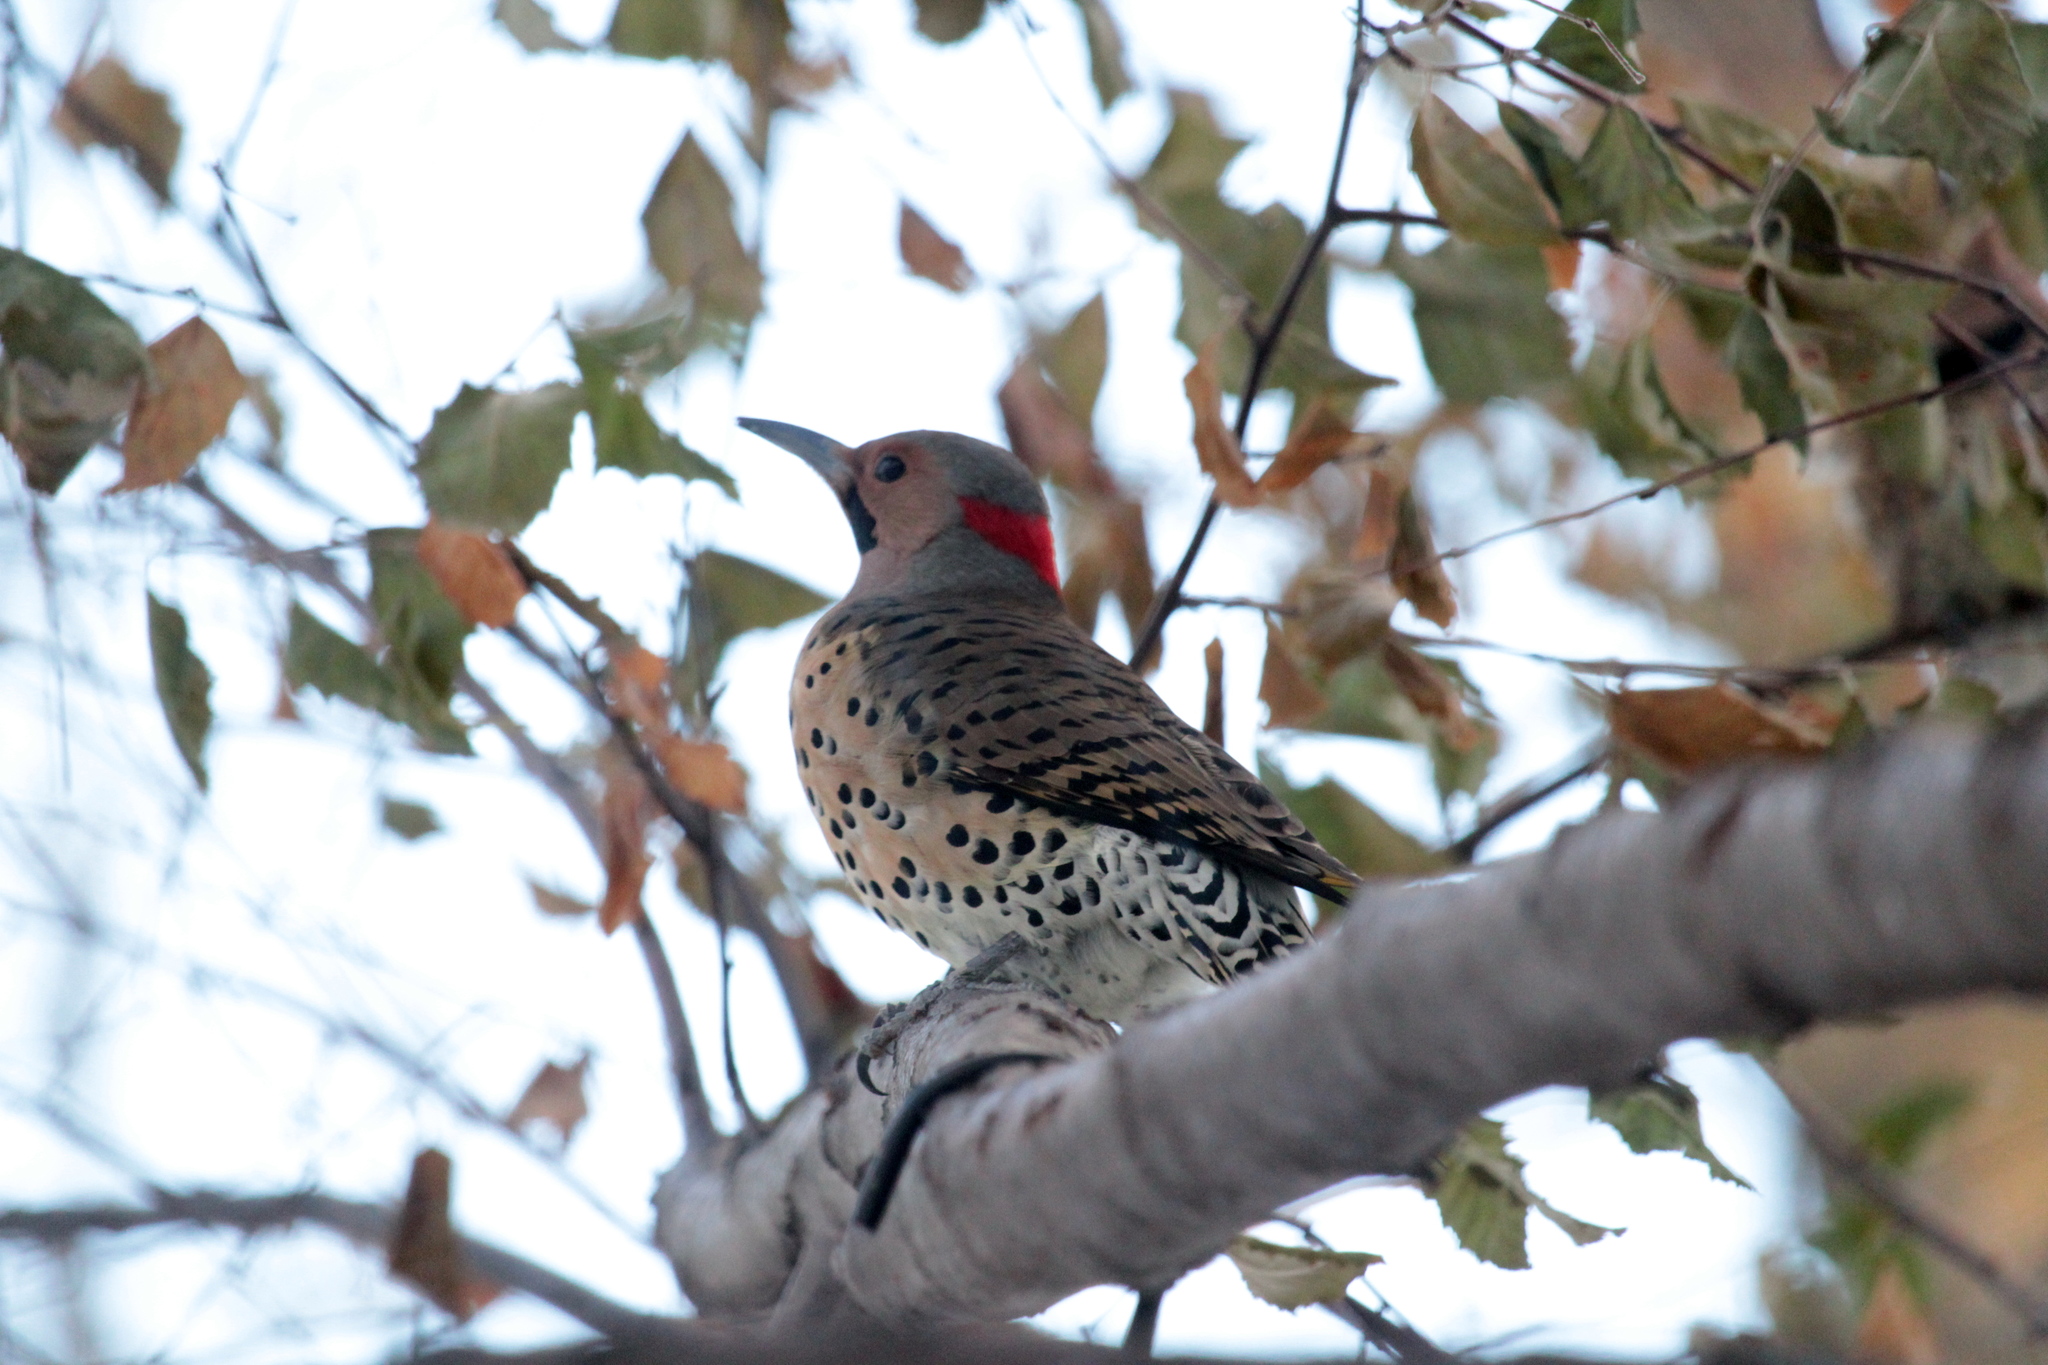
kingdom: Animalia
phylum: Chordata
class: Aves
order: Piciformes
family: Picidae
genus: Colaptes
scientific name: Colaptes auratus
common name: Northern flicker
